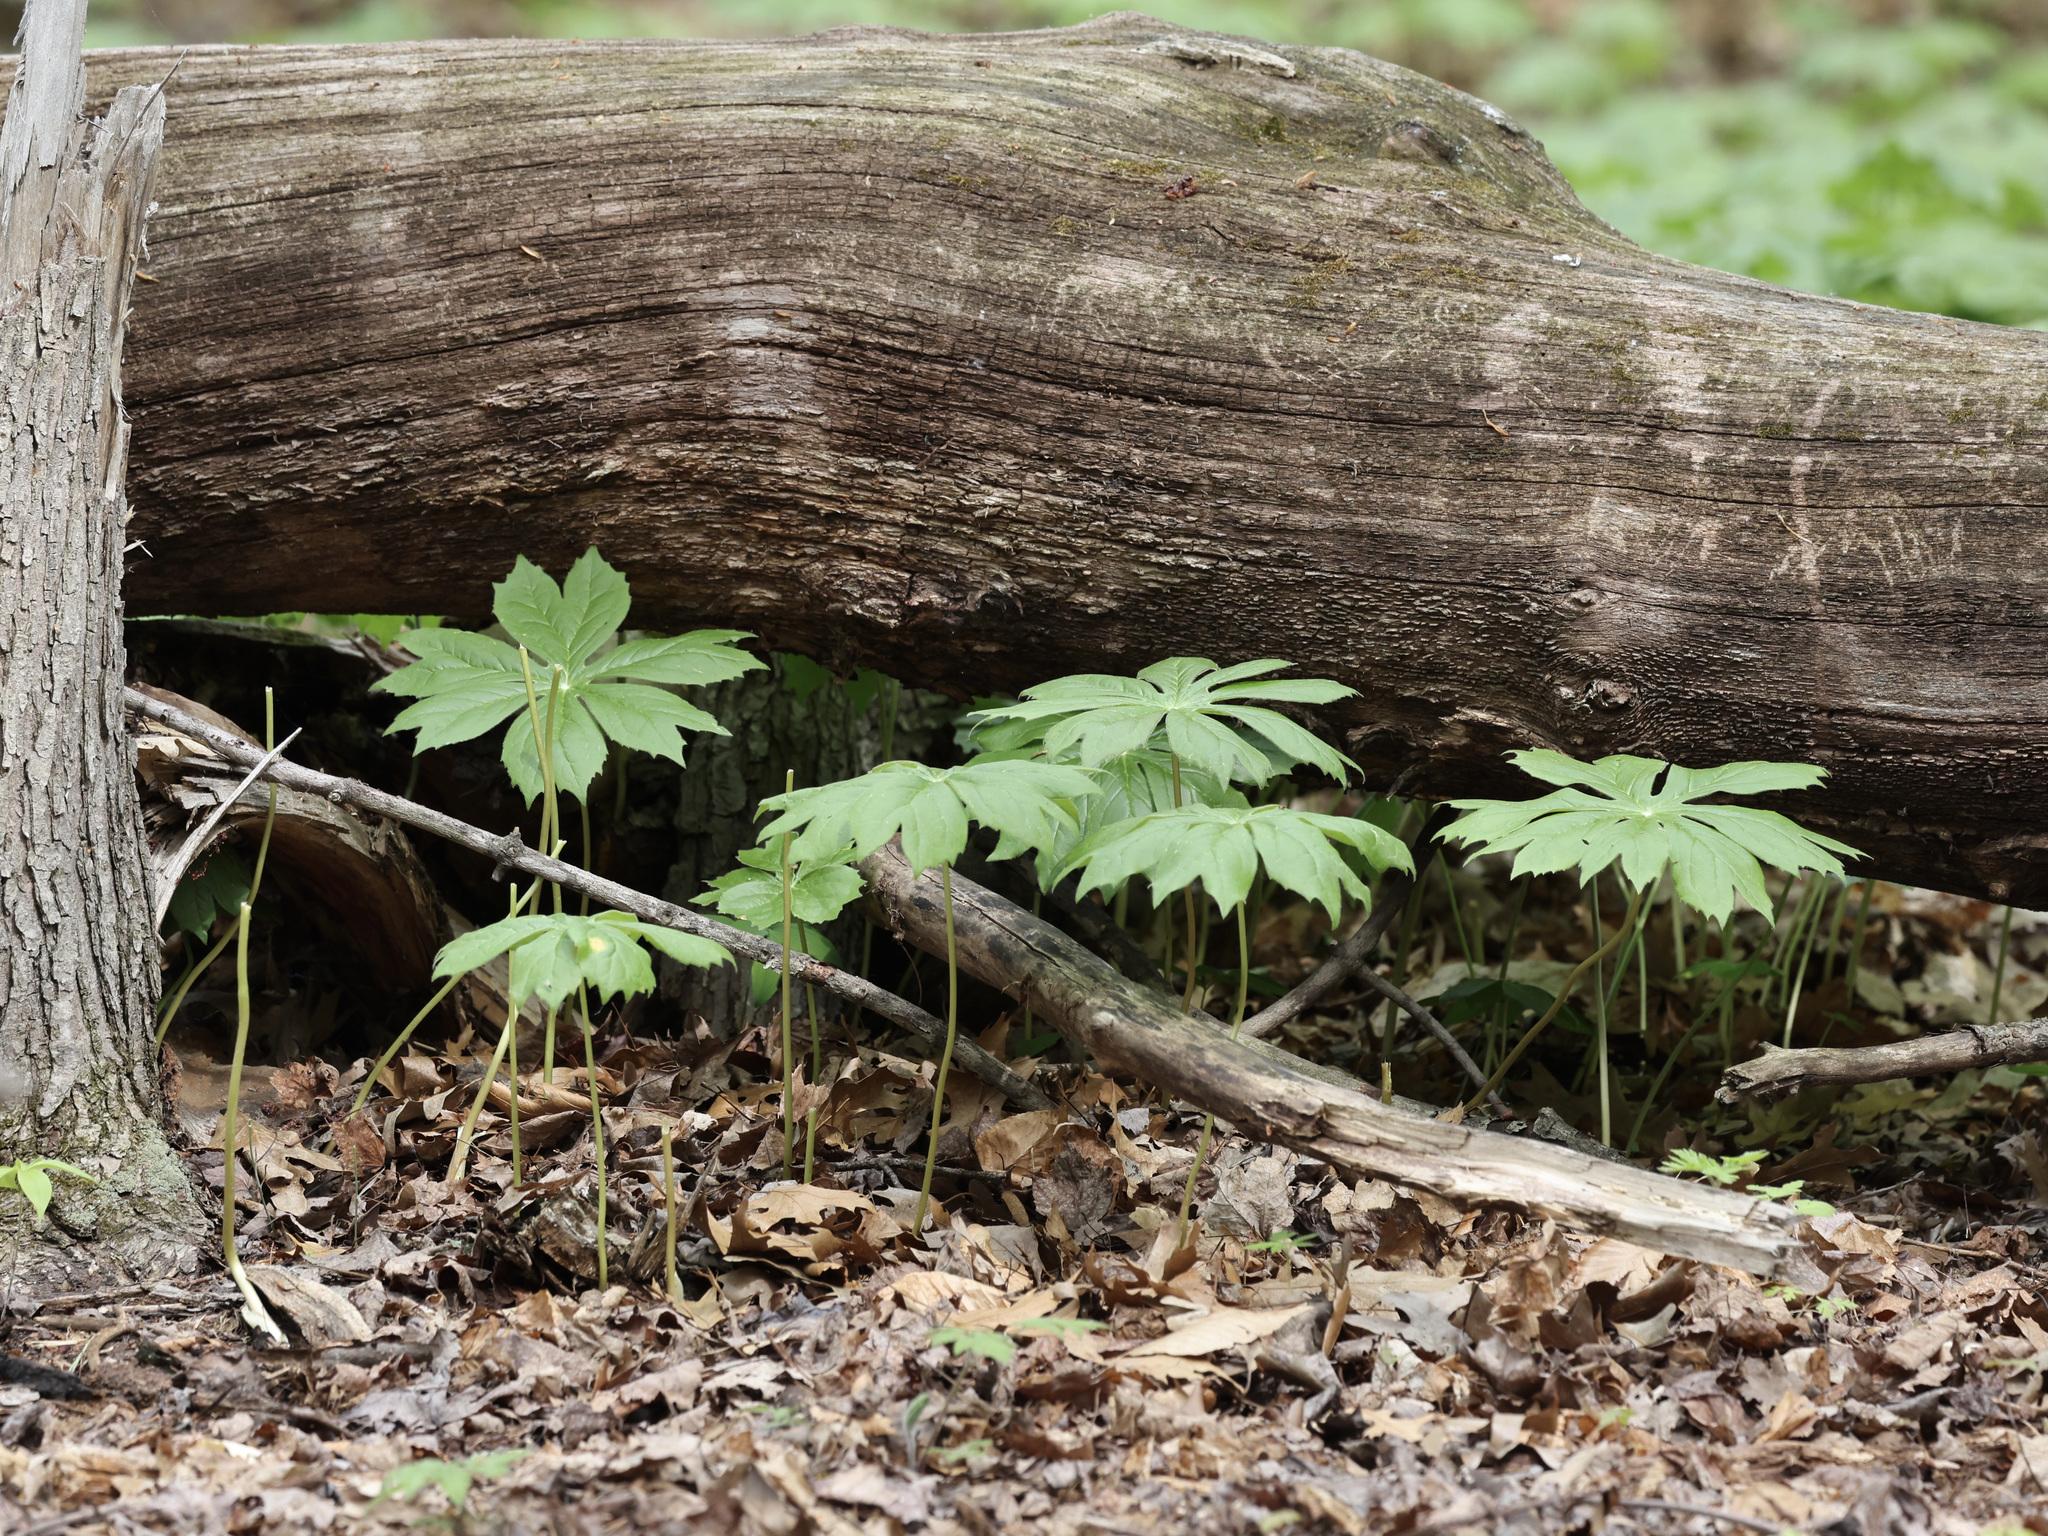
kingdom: Plantae
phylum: Tracheophyta
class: Magnoliopsida
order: Ranunculales
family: Berberidaceae
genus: Podophyllum
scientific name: Podophyllum peltatum
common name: Wild mandrake
